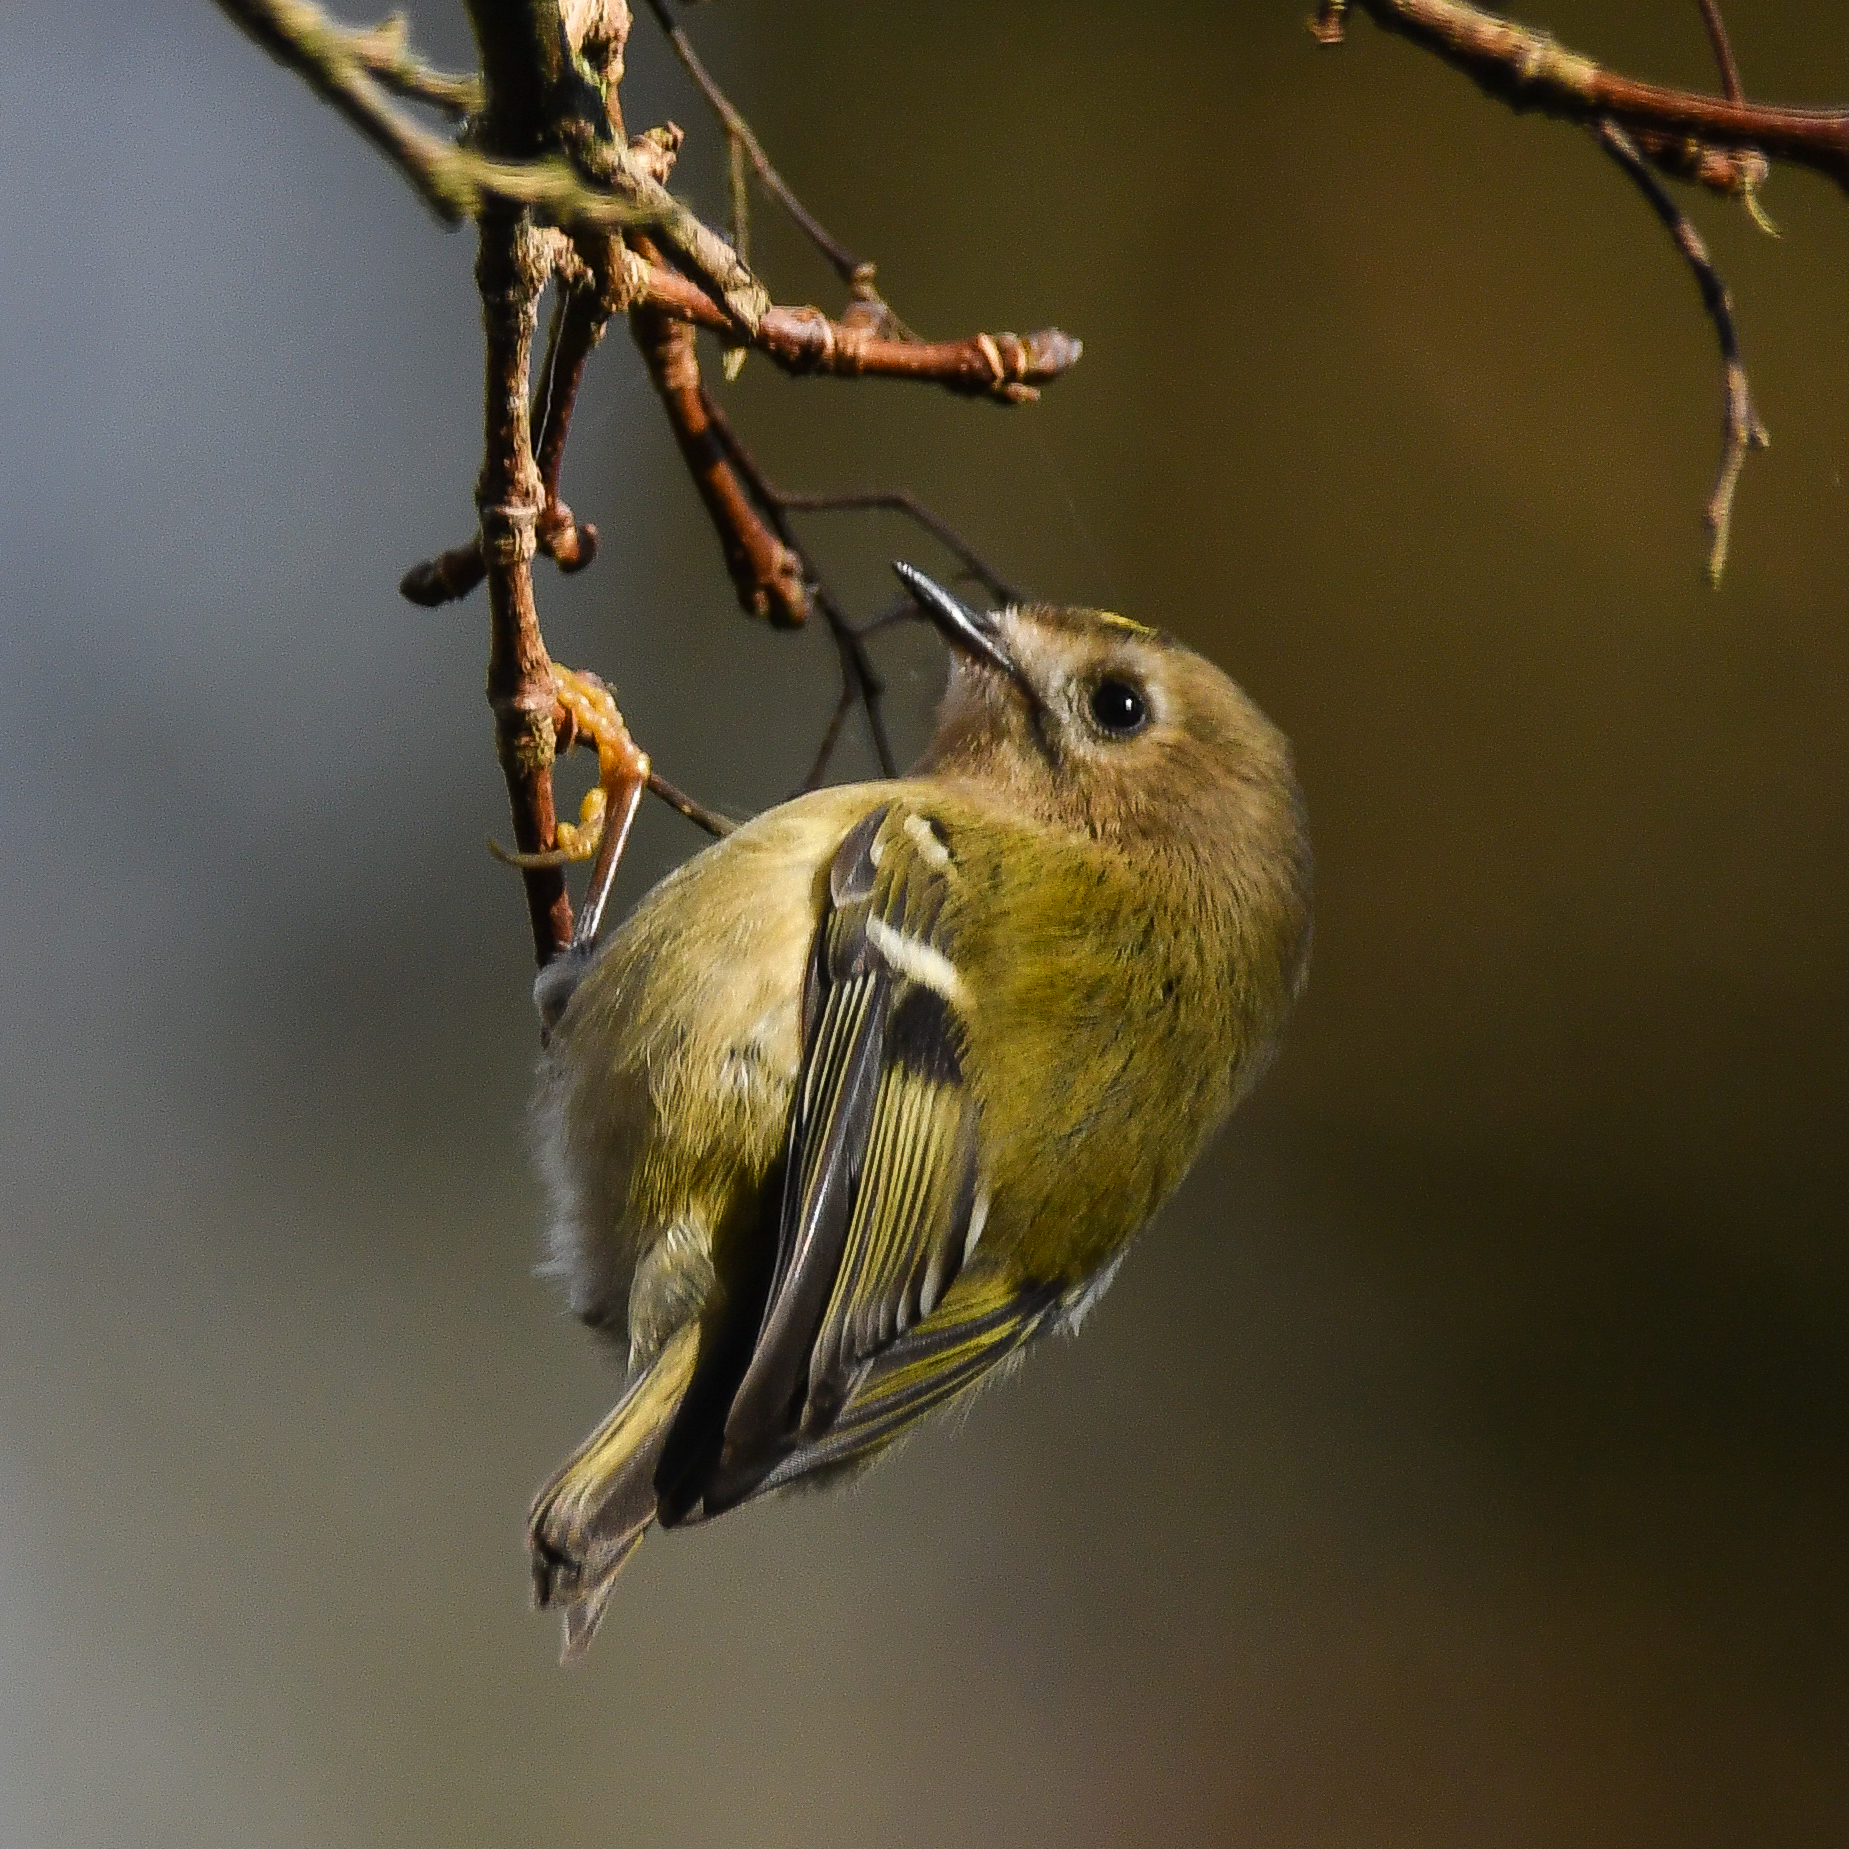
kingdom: Animalia
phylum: Chordata
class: Aves
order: Passeriformes
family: Regulidae
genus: Regulus
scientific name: Regulus regulus
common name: Goldcrest
